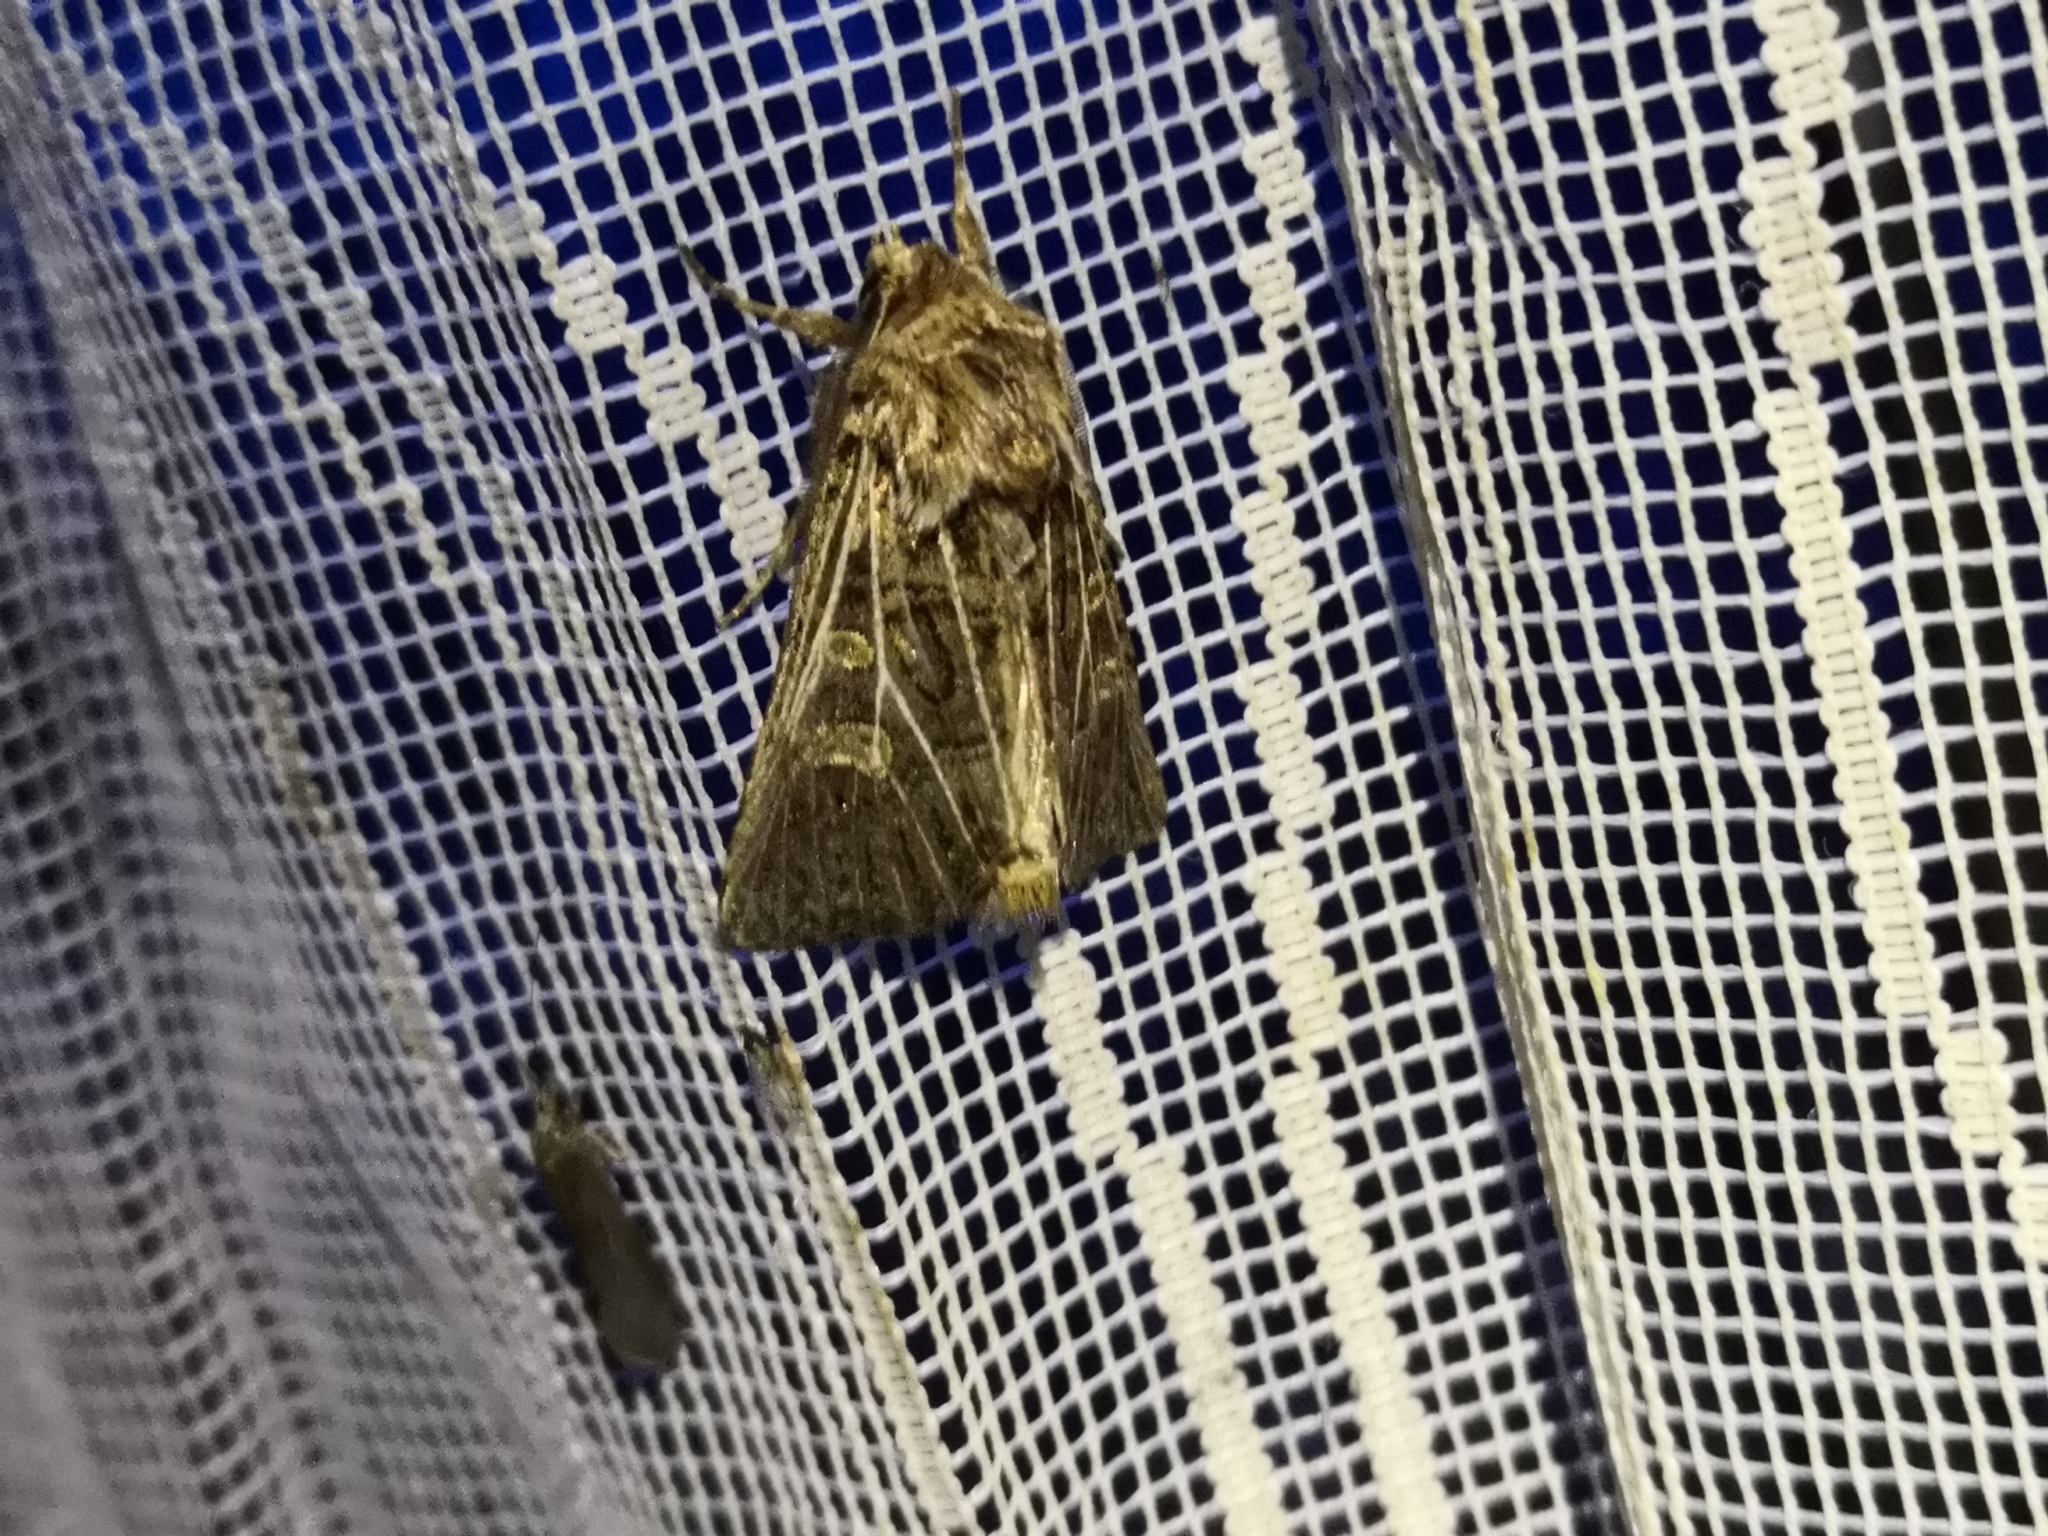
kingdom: Animalia
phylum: Arthropoda
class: Insecta
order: Lepidoptera
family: Noctuidae
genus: Tholera
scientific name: Tholera decimalis
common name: Feathered gothic
